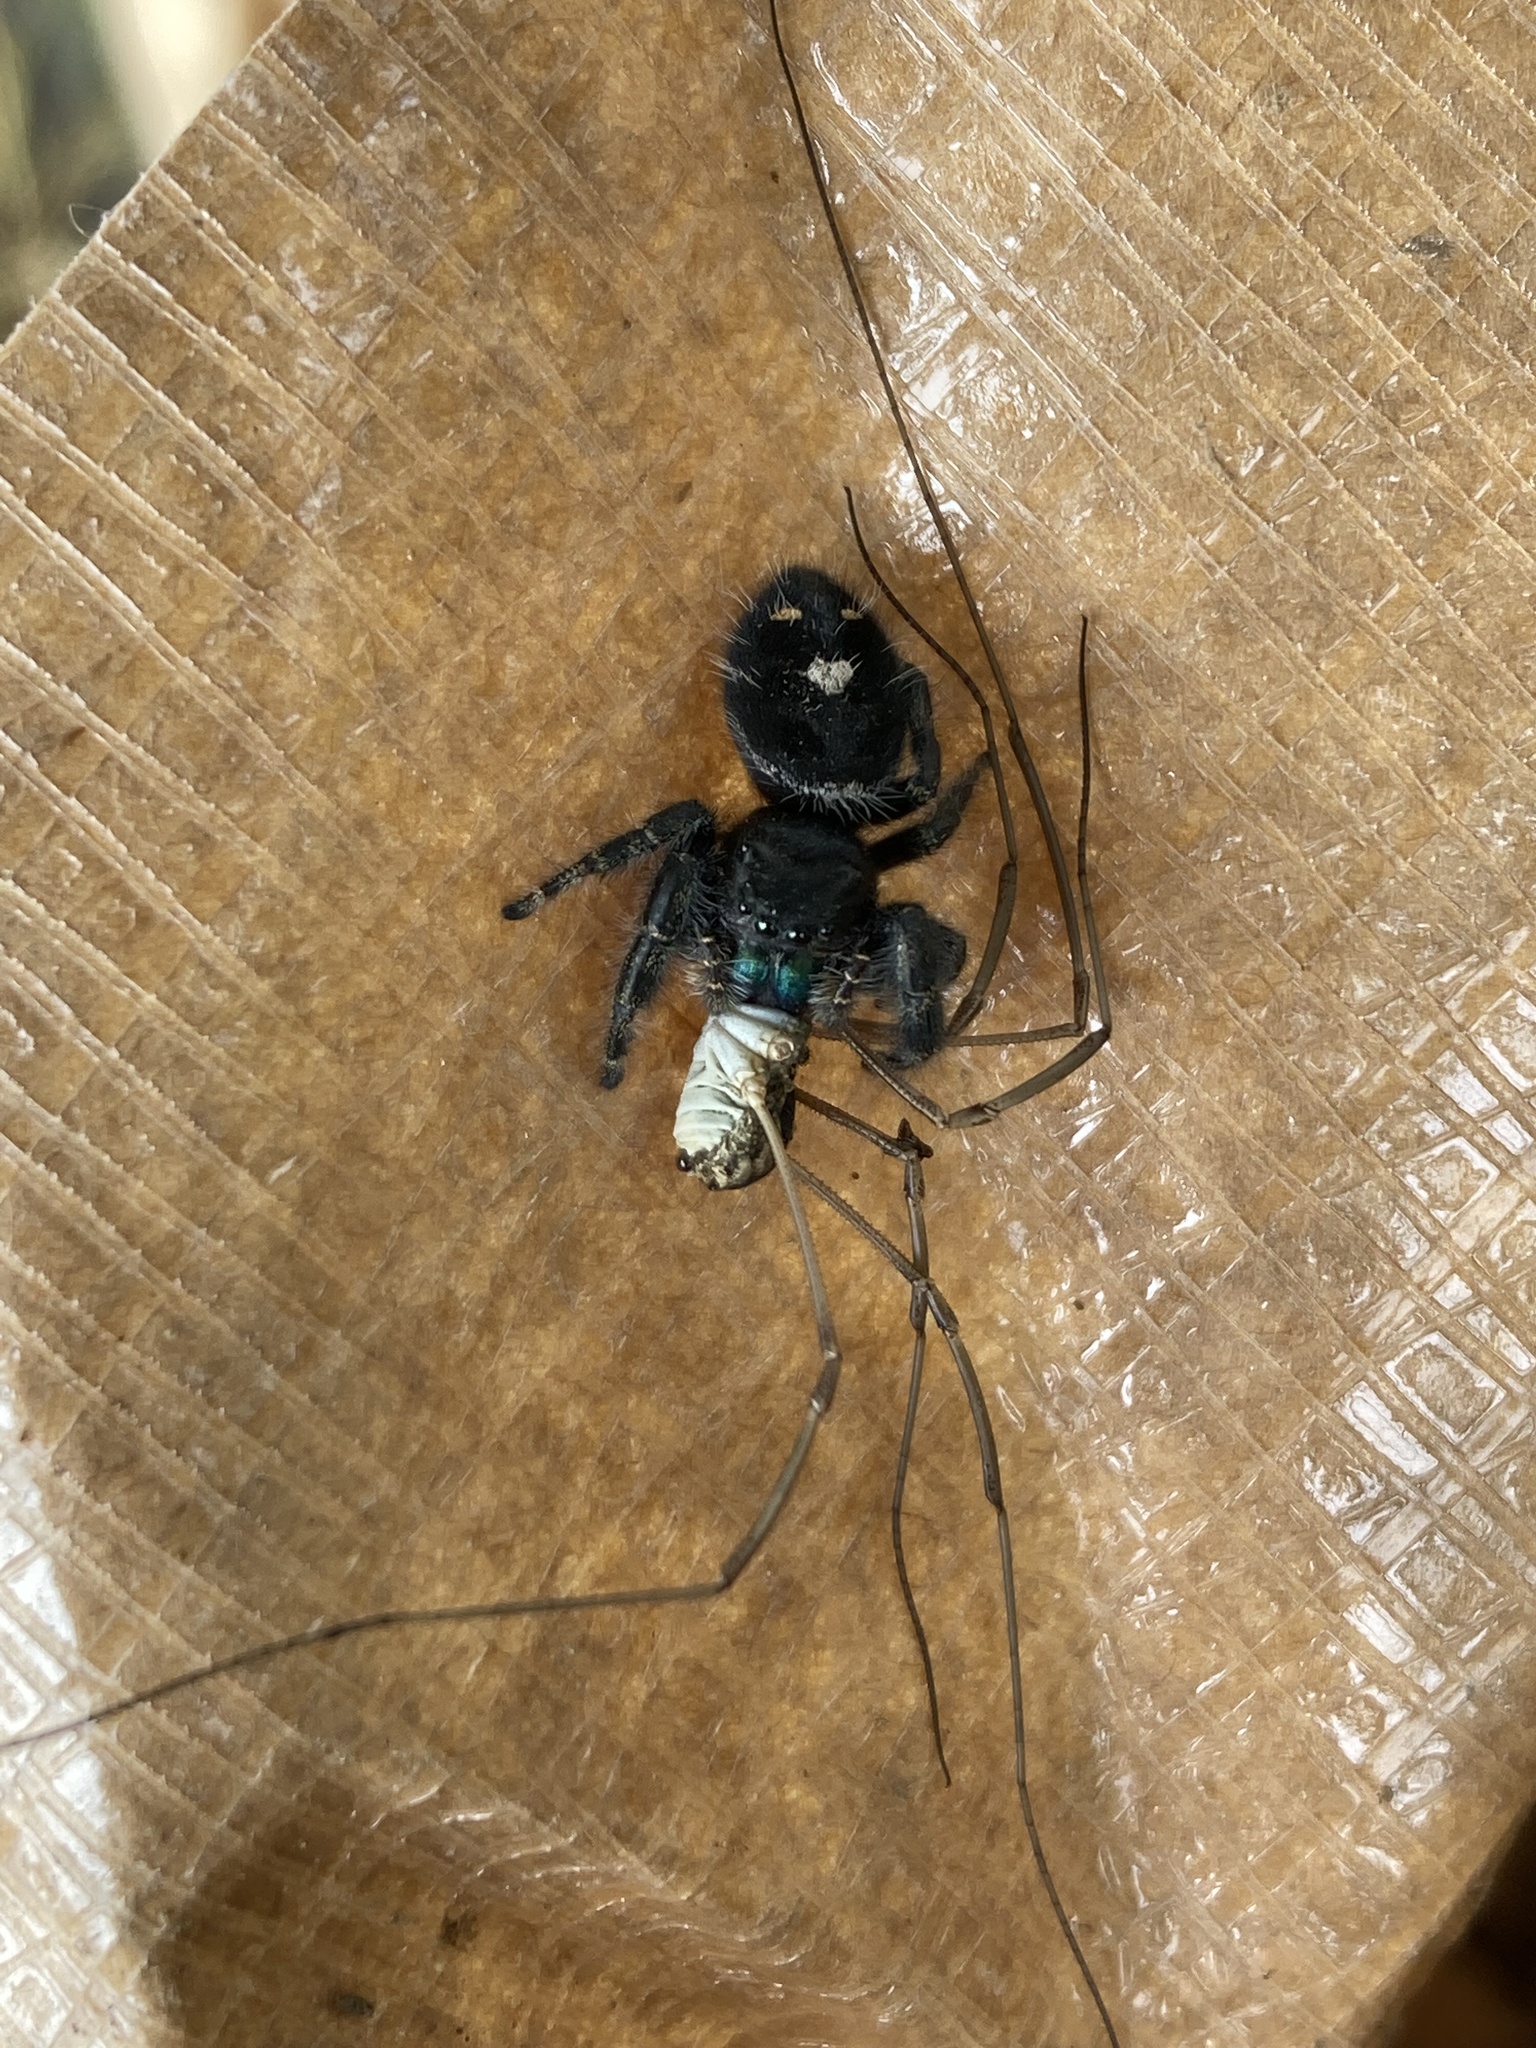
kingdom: Animalia
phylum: Arthropoda
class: Arachnida
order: Araneae
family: Salticidae
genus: Phidippus
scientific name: Phidippus audax
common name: Bold jumper
